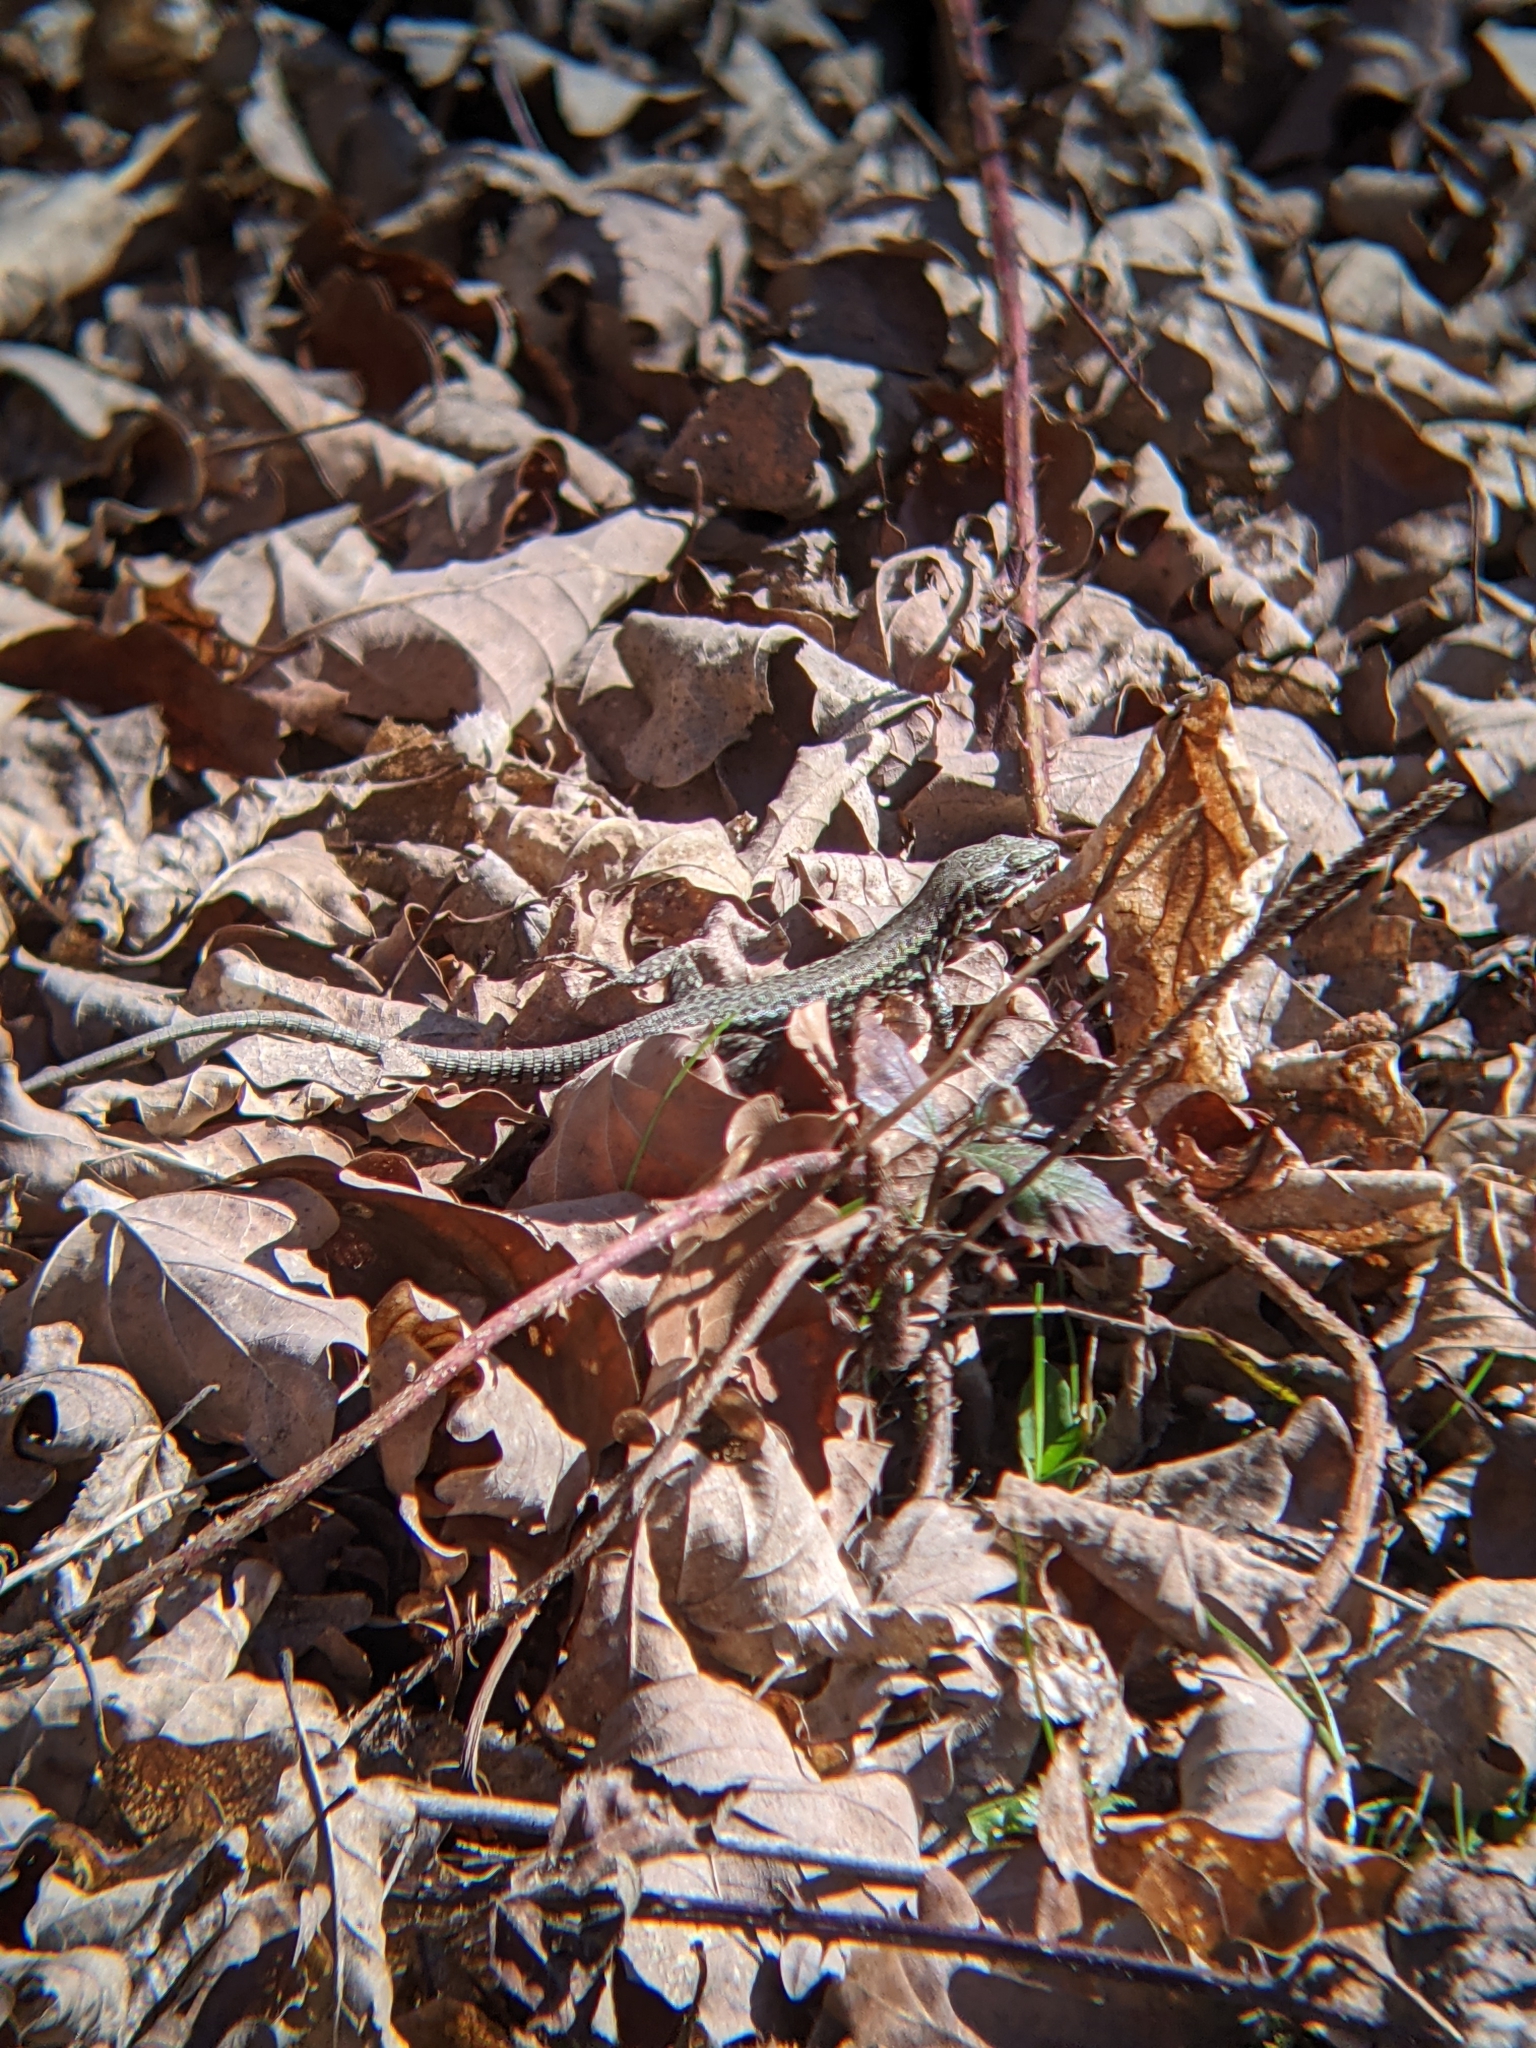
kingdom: Animalia
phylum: Chordata
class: Squamata
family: Lacertidae
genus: Podarcis
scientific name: Podarcis muralis
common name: Common wall lizard
